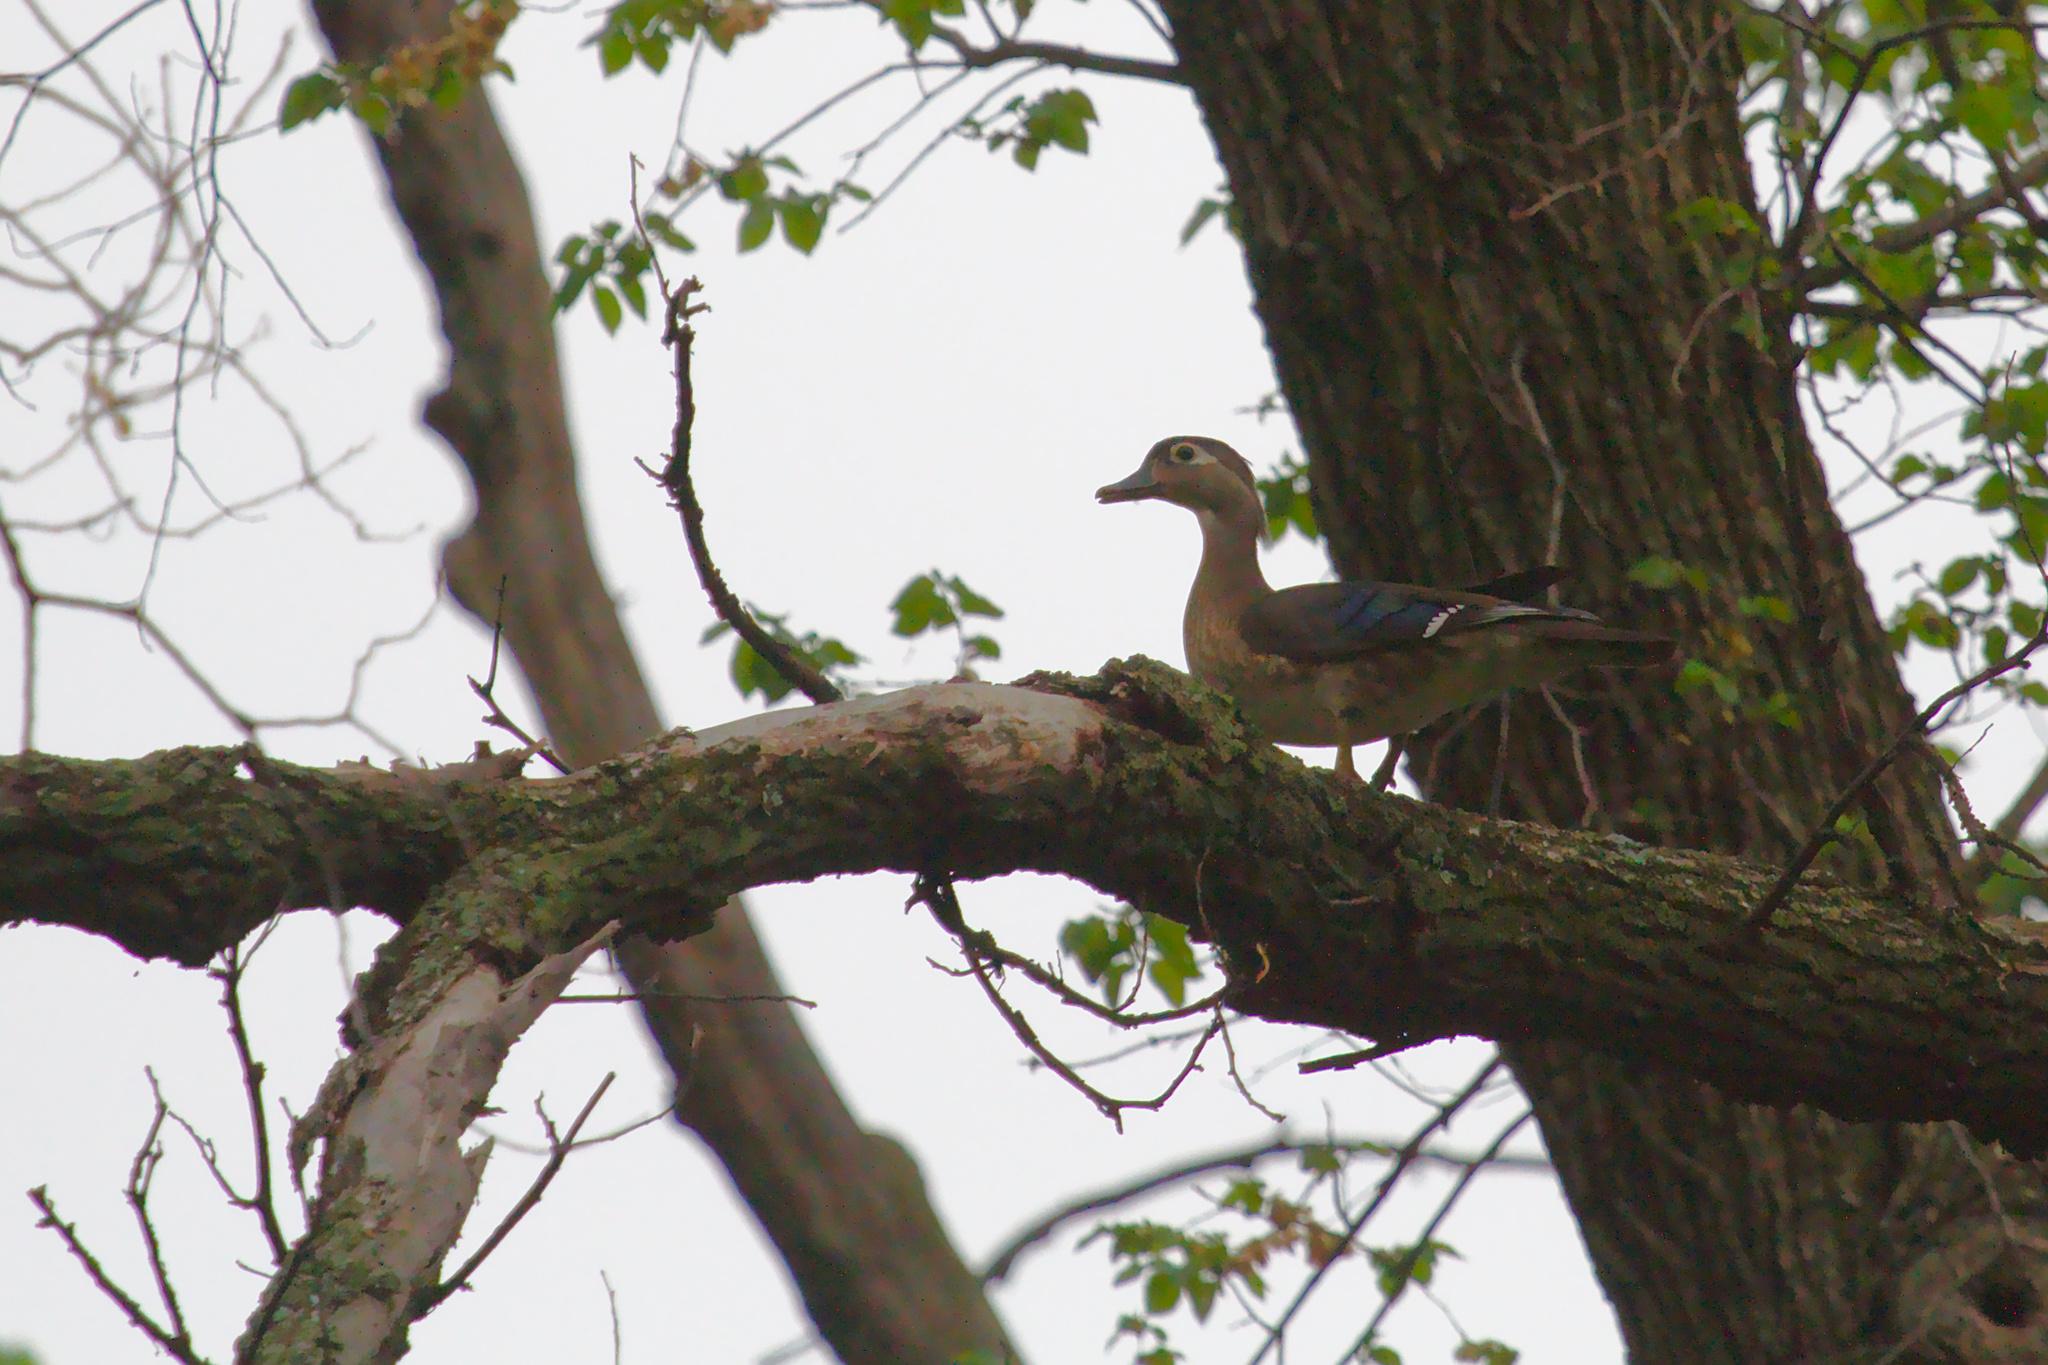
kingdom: Animalia
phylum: Chordata
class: Aves
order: Anseriformes
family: Anatidae
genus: Aix
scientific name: Aix sponsa
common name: Wood duck
